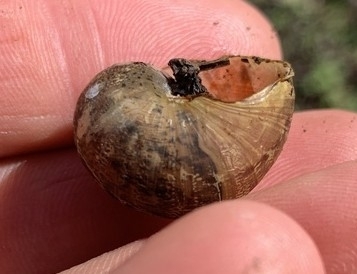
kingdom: Animalia
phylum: Mollusca
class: Gastropoda
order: Stylommatophora
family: Helicidae
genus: Cornu
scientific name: Cornu aspersum
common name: Brown garden snail
